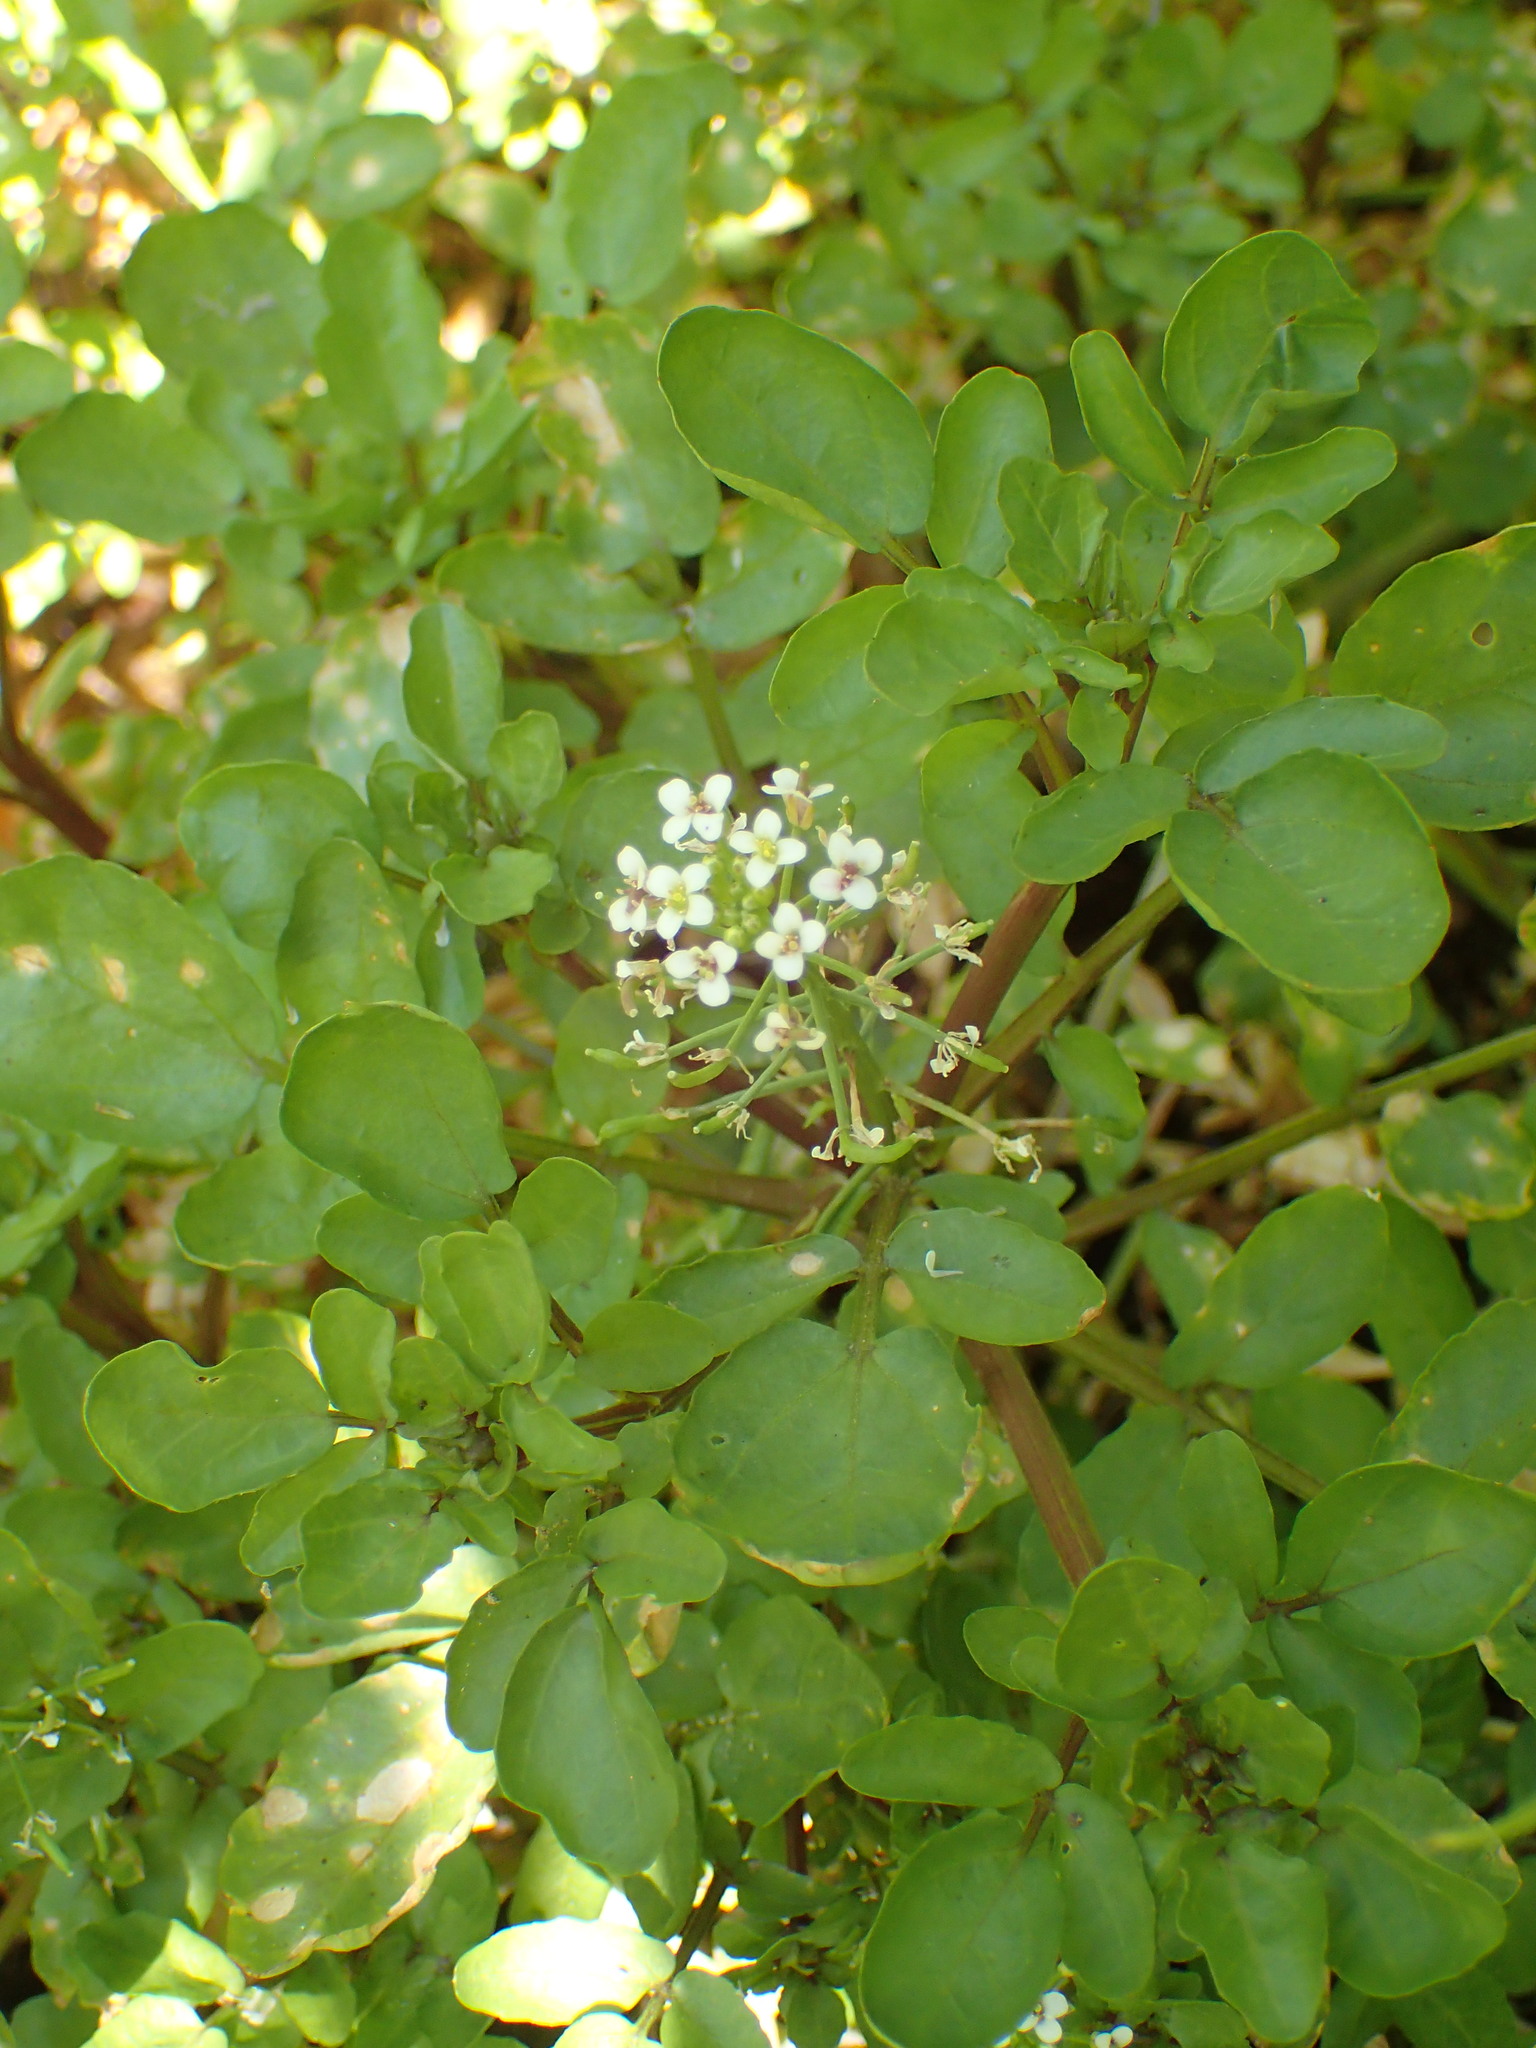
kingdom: Plantae
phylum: Tracheophyta
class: Magnoliopsida
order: Brassicales
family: Brassicaceae
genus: Nasturtium
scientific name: Nasturtium officinale
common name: Watercress
